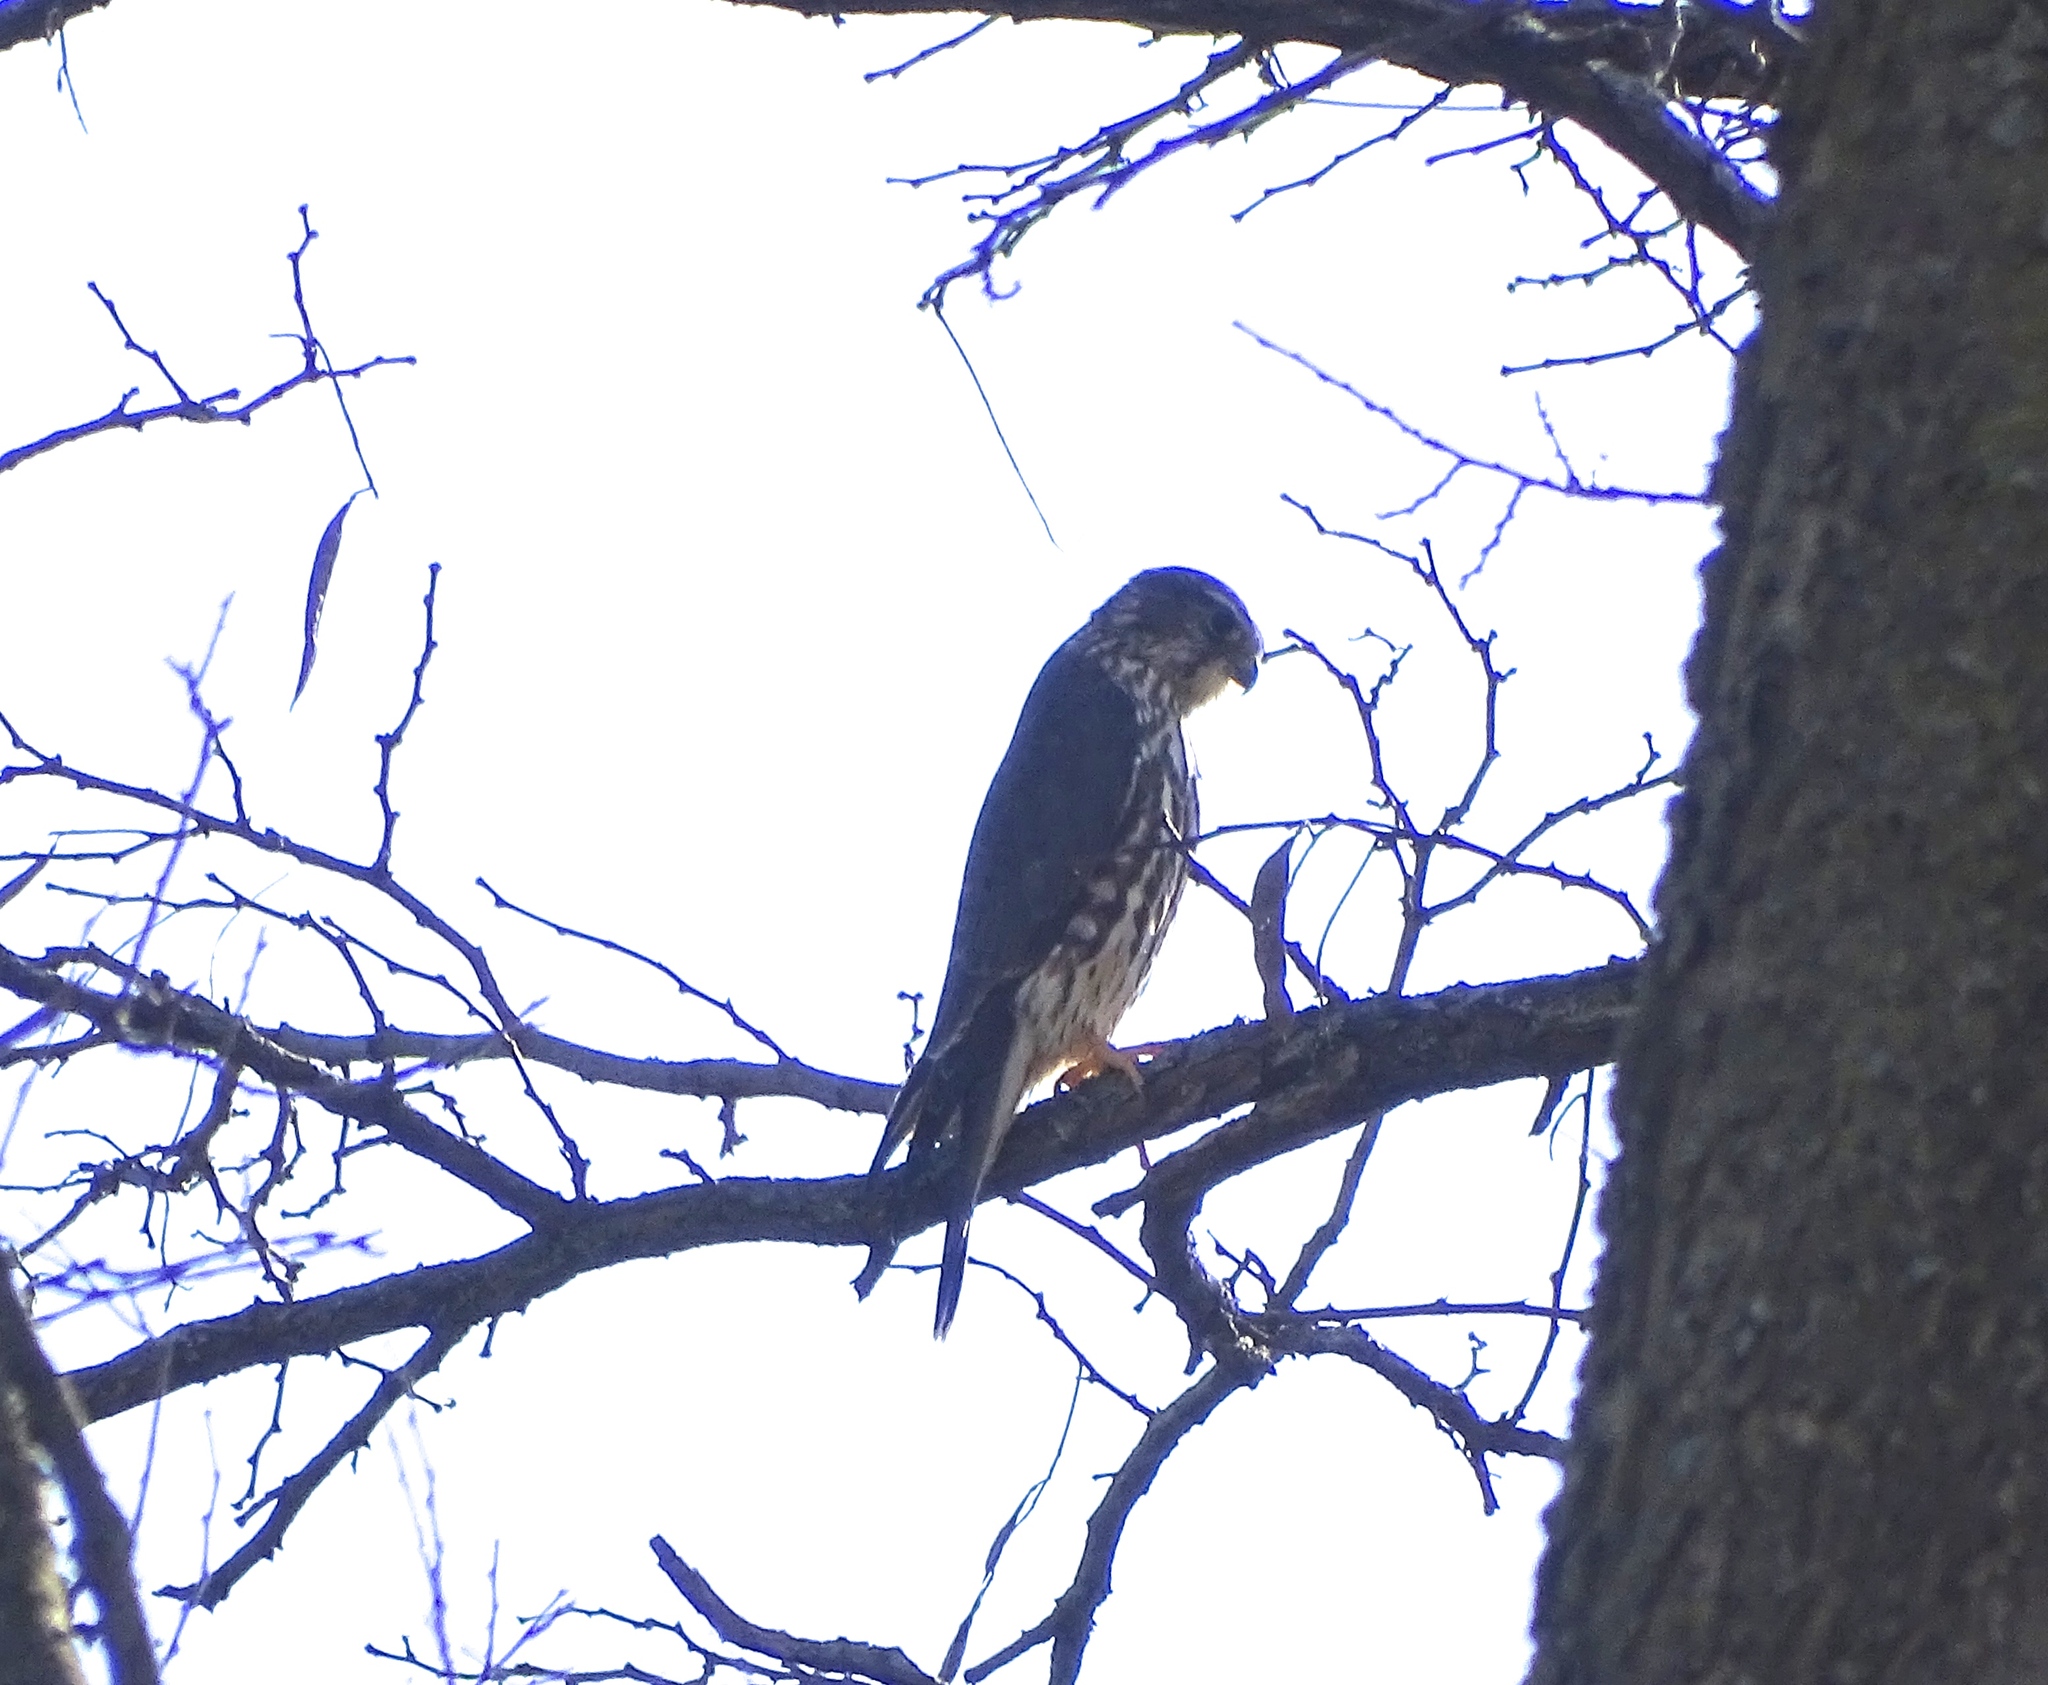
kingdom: Animalia
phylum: Chordata
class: Aves
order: Falconiformes
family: Falconidae
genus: Falco
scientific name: Falco columbarius
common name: Merlin
